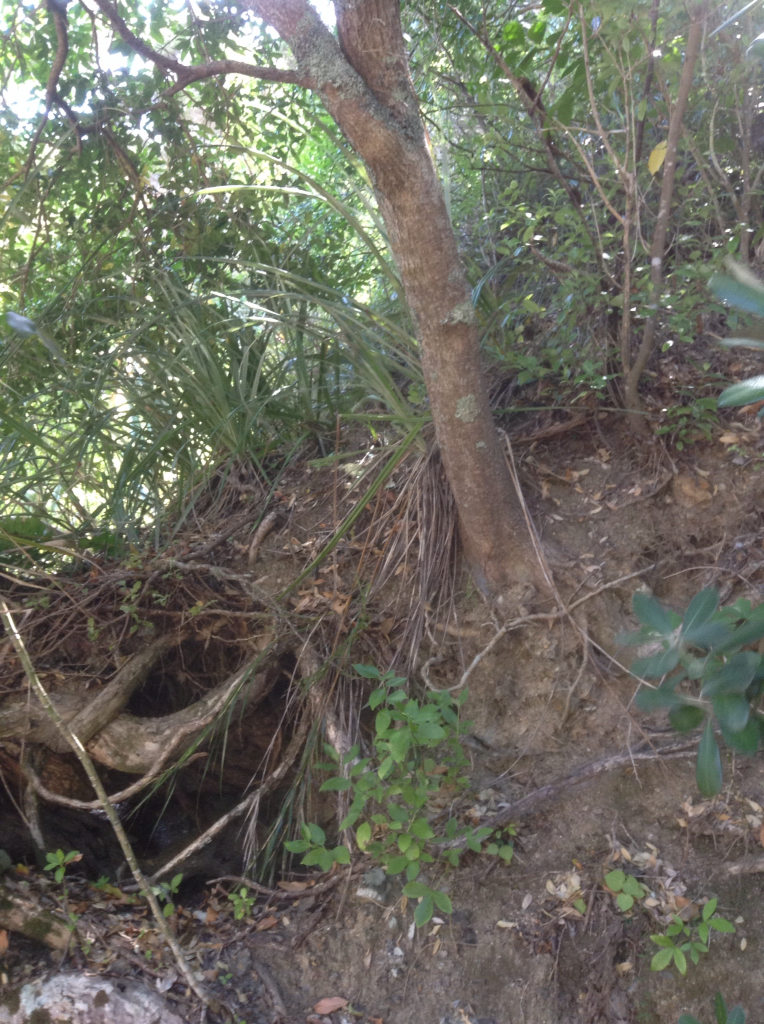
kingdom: Plantae
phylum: Tracheophyta
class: Magnoliopsida
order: Lamiales
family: Oleaceae
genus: Nestegis
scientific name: Nestegis apetala
